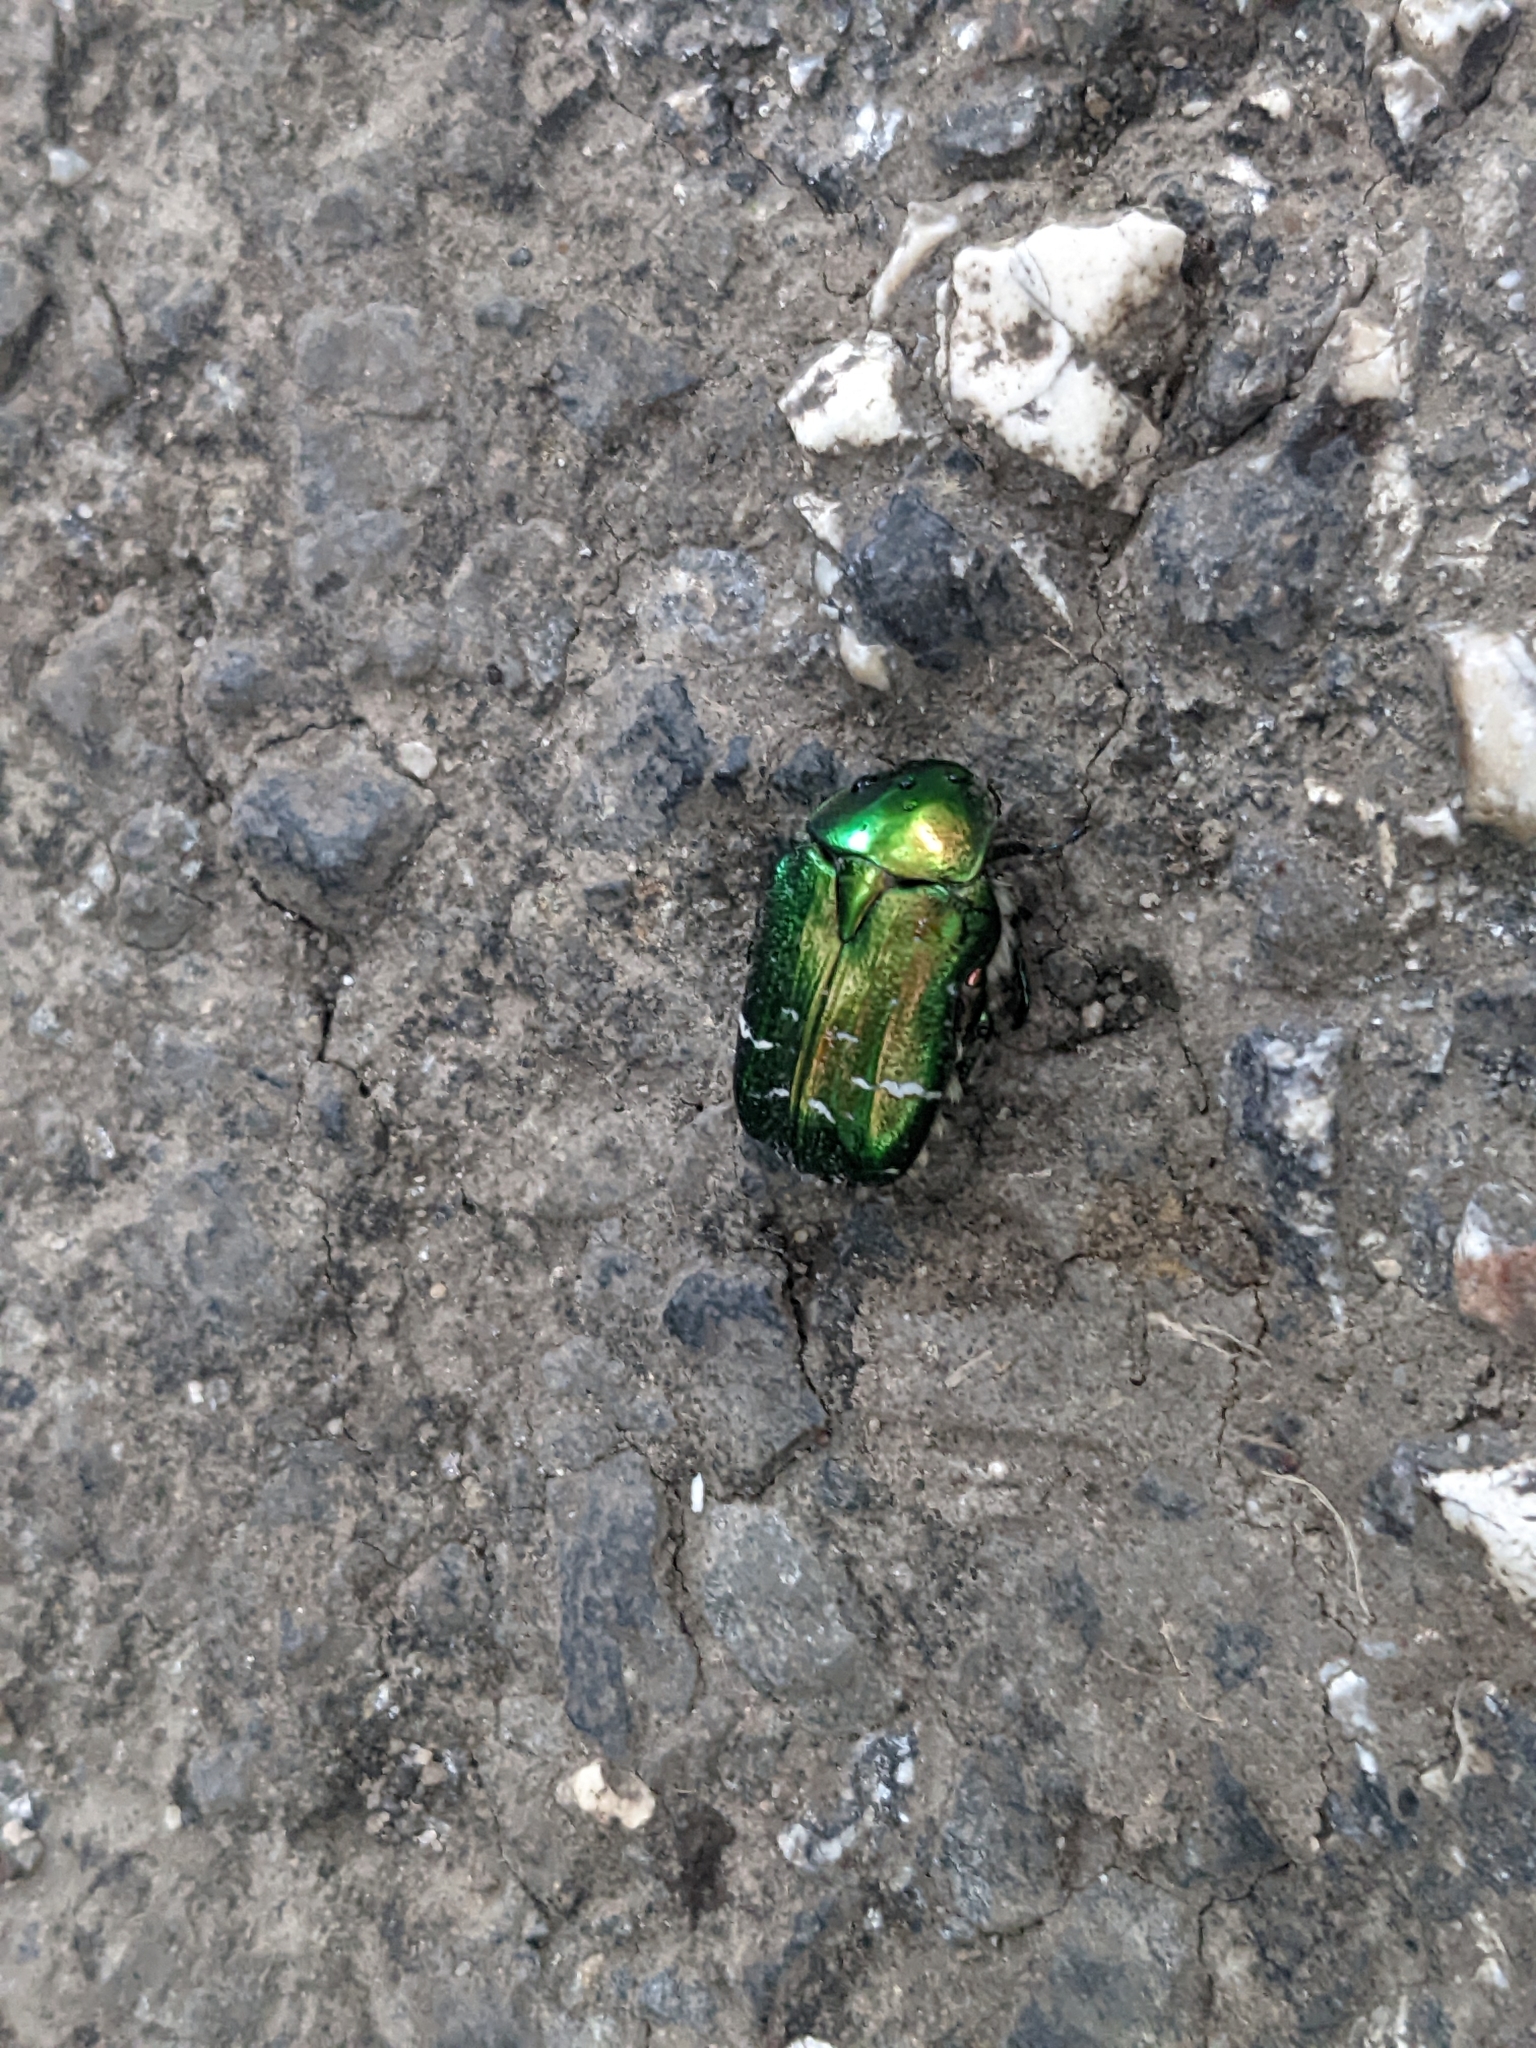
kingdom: Animalia
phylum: Arthropoda
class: Insecta
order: Coleoptera
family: Scarabaeidae
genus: Cetonia
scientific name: Cetonia aurata
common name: Rose chafer
